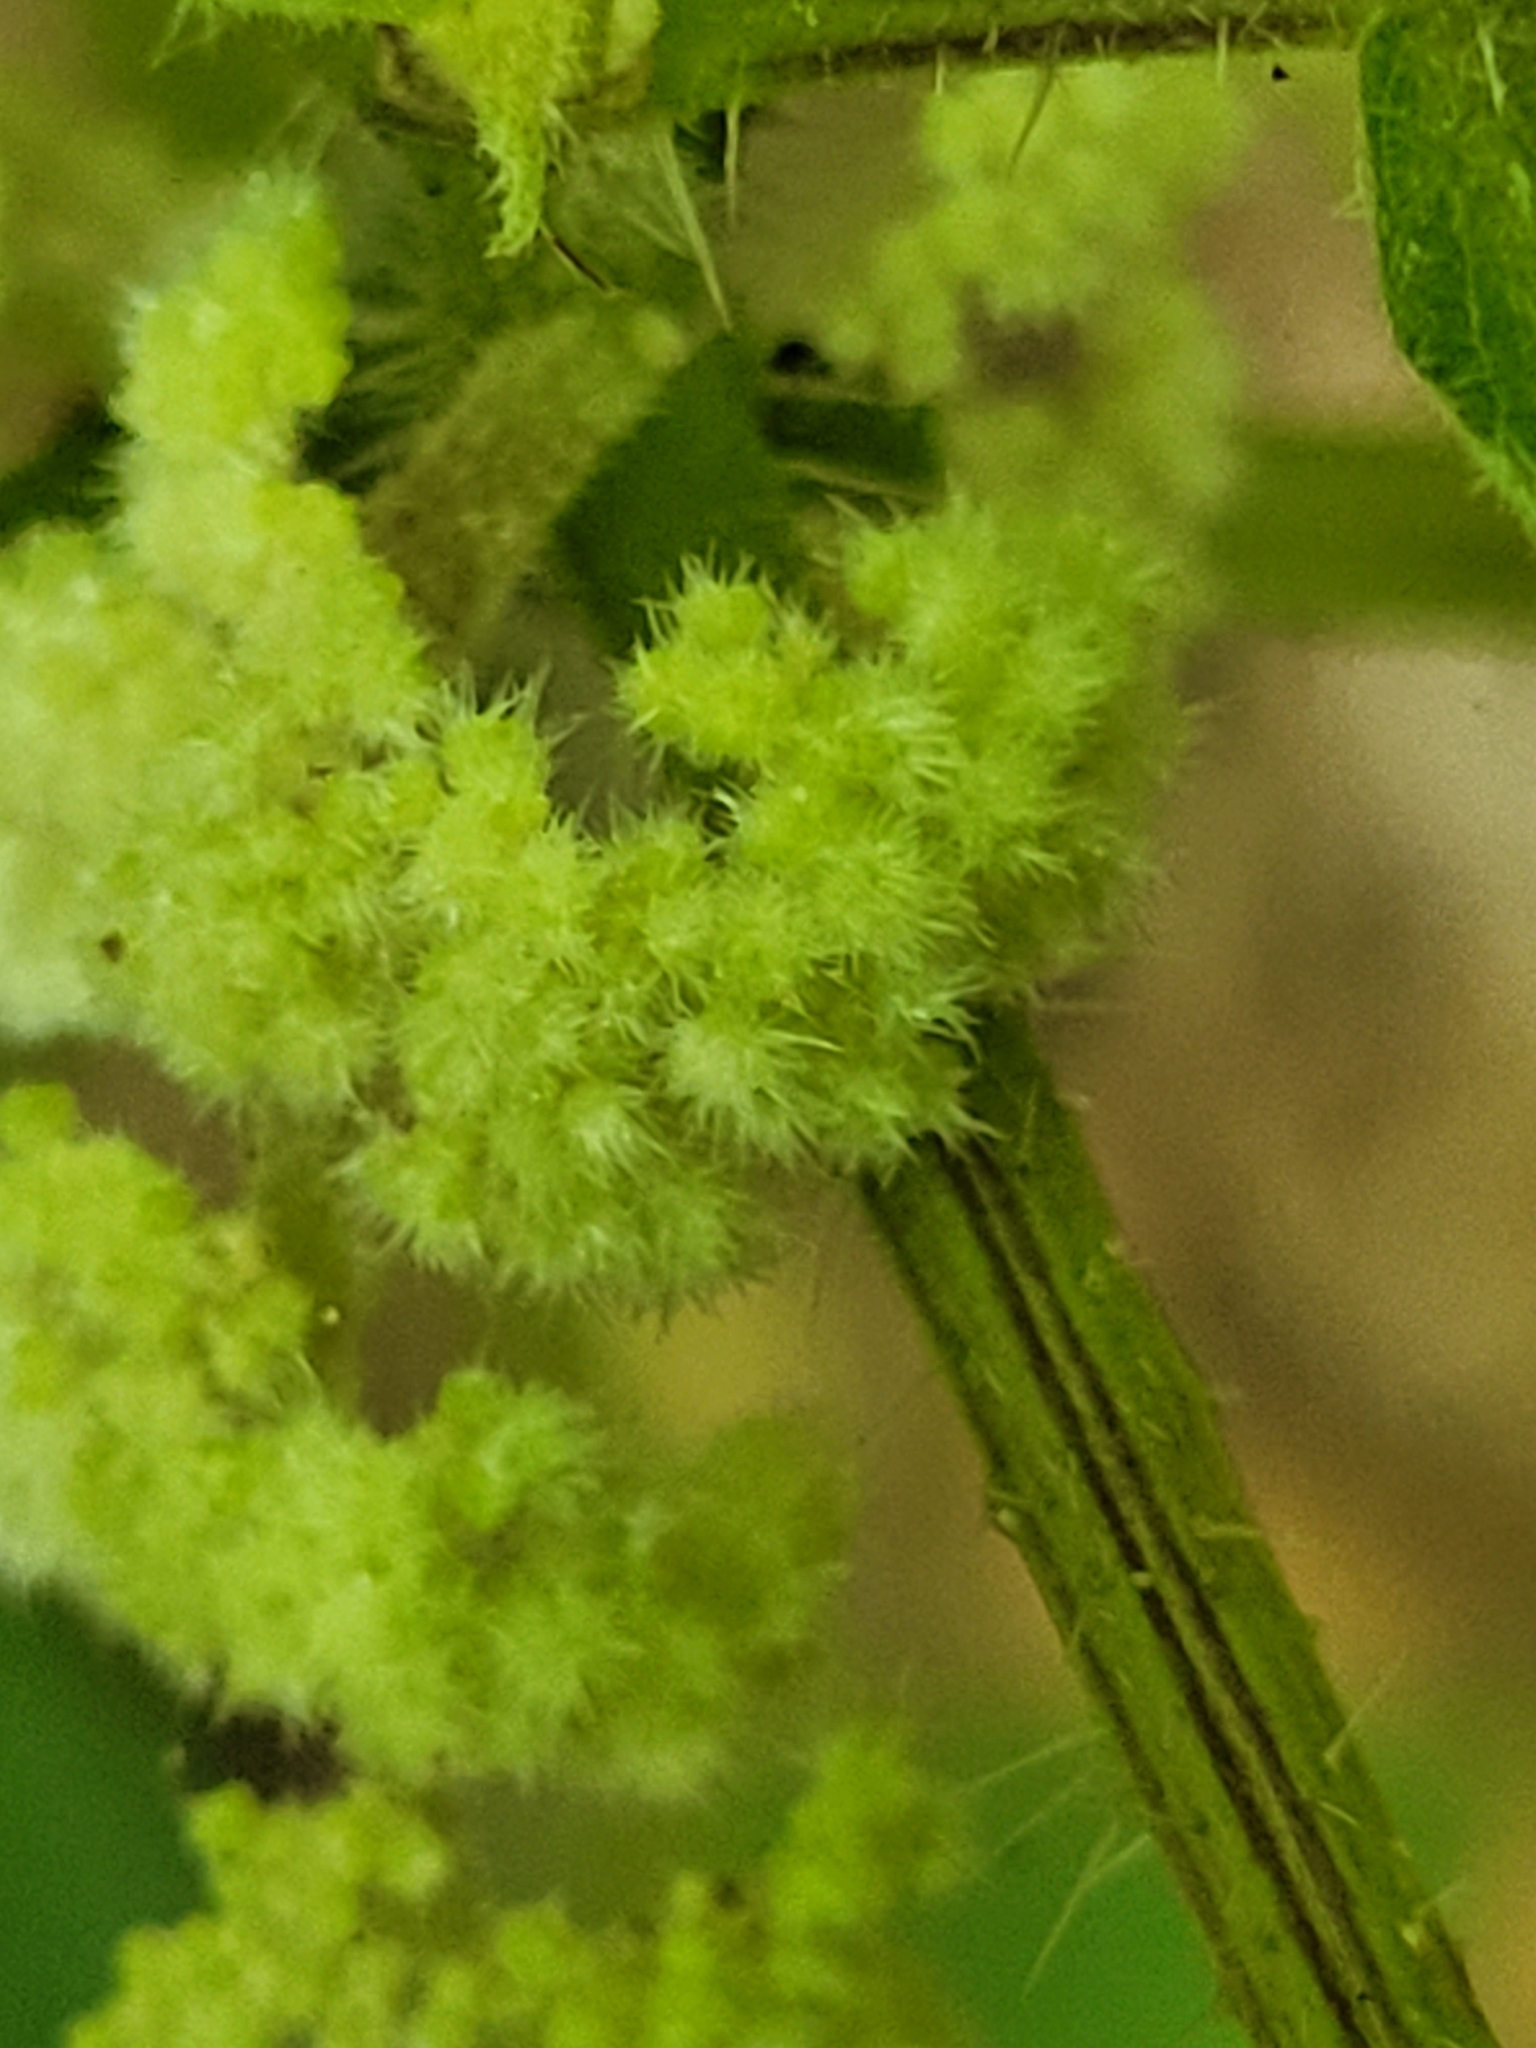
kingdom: Plantae
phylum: Tracheophyta
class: Magnoliopsida
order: Rosales
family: Urticaceae
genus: Laportea
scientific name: Laportea canadensis
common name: Canada nettle
